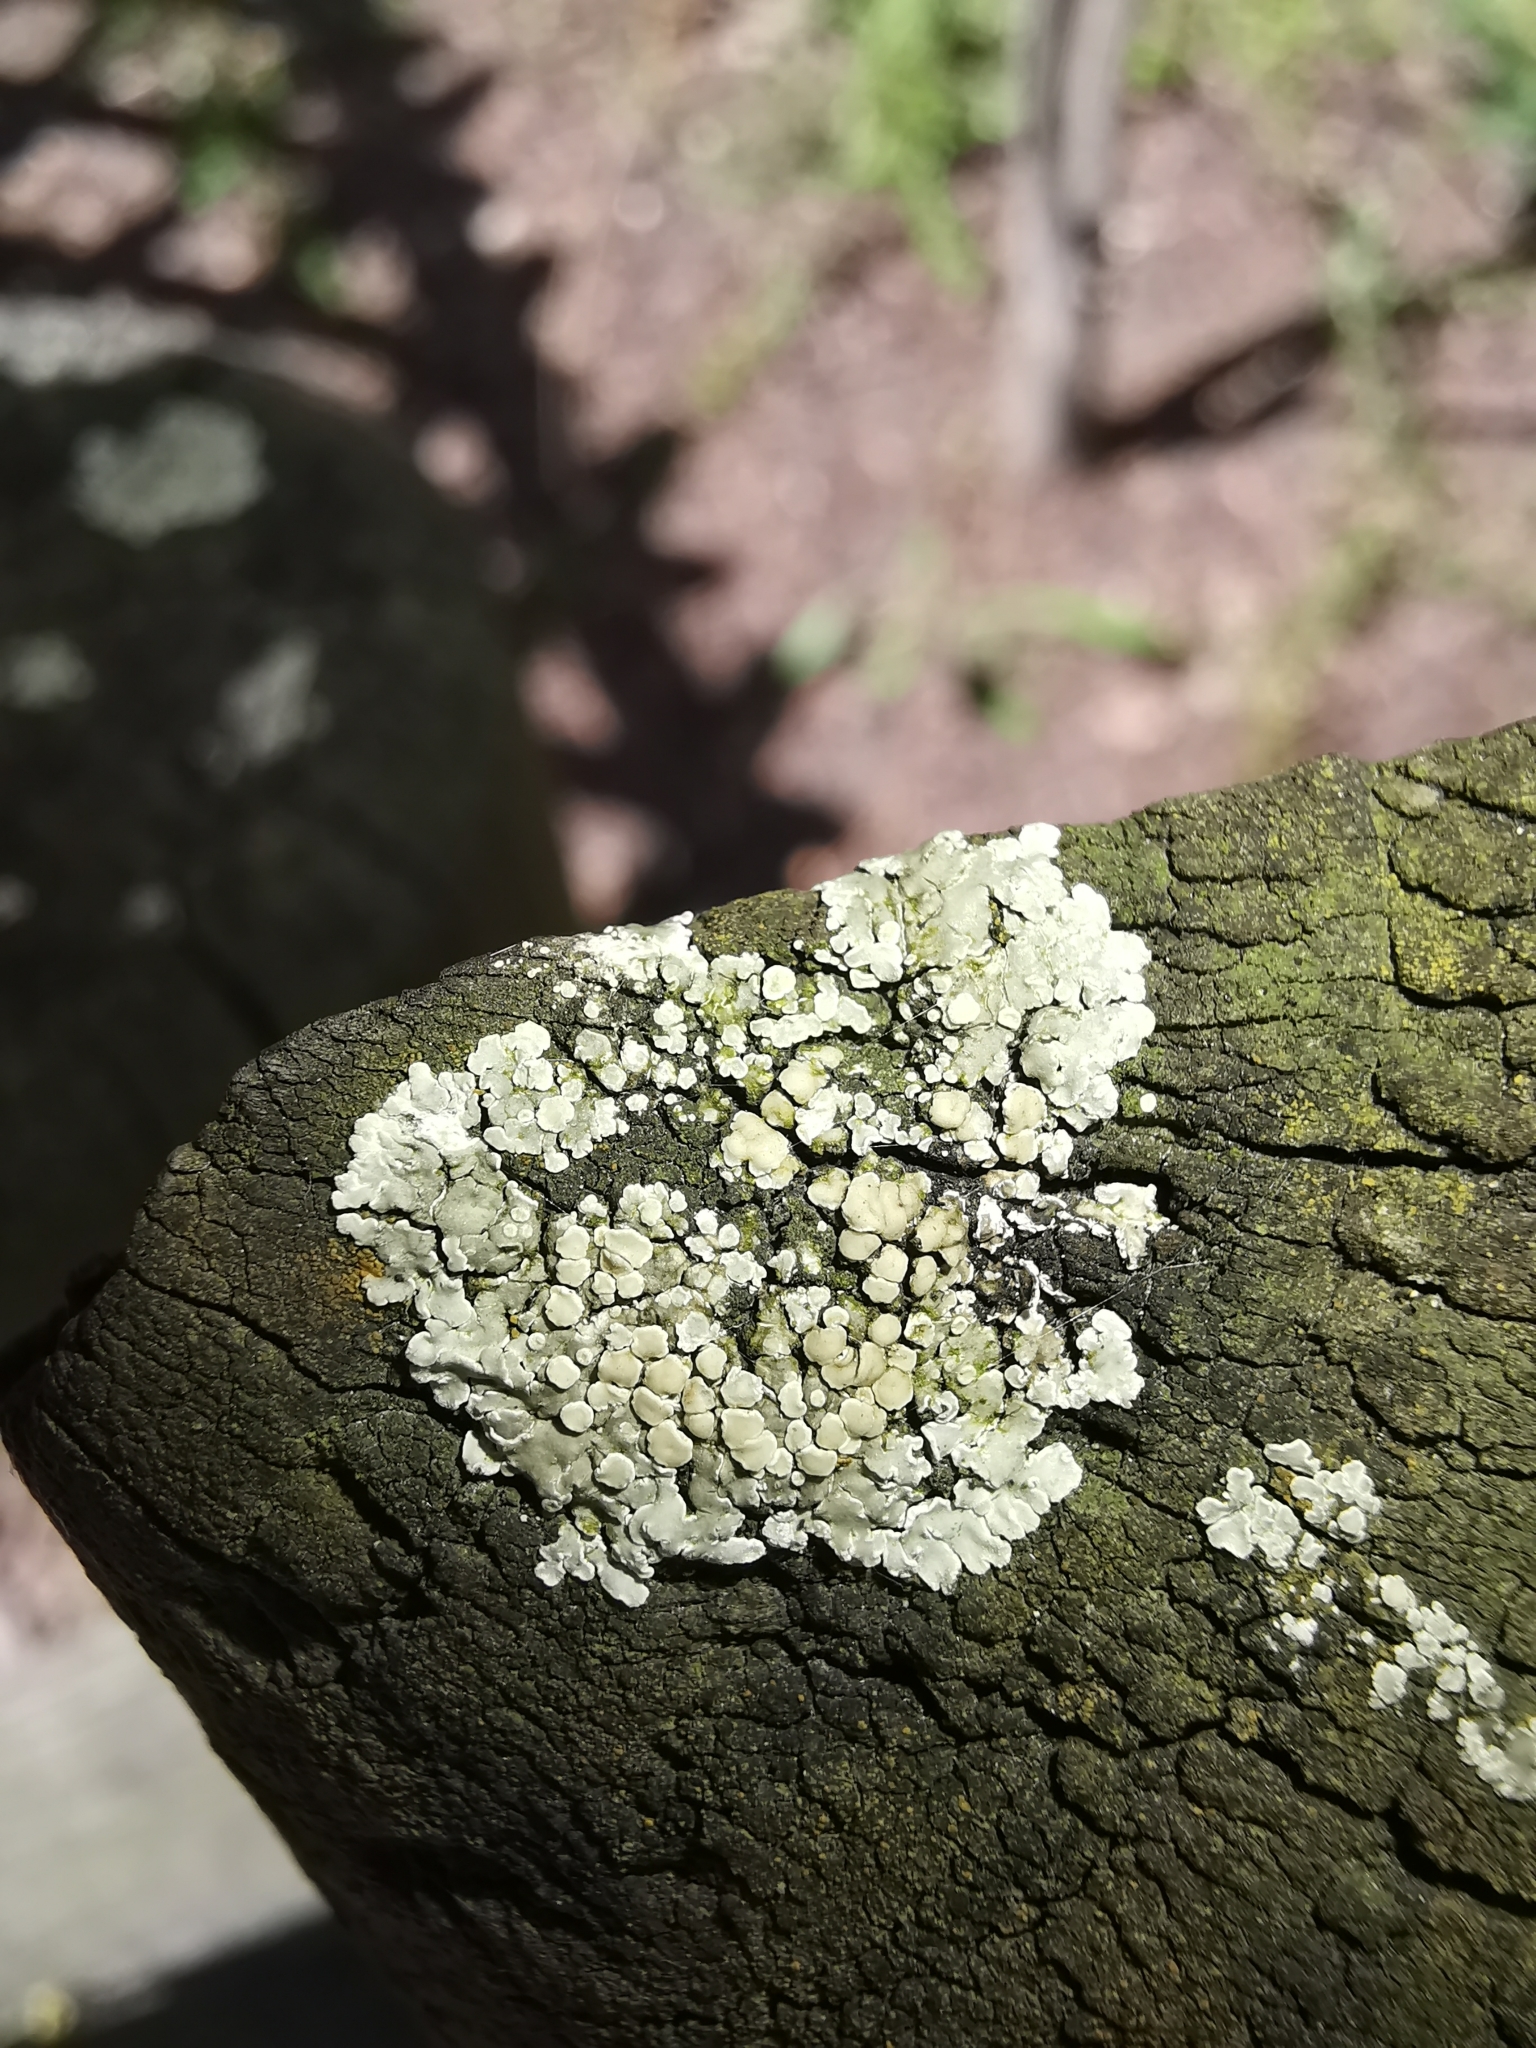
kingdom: Fungi
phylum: Ascomycota
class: Lecanoromycetes
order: Lecanorales
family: Lecanoraceae
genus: Protoparmeliopsis
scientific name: Protoparmeliopsis muralis
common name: Stonewall rim lichen
